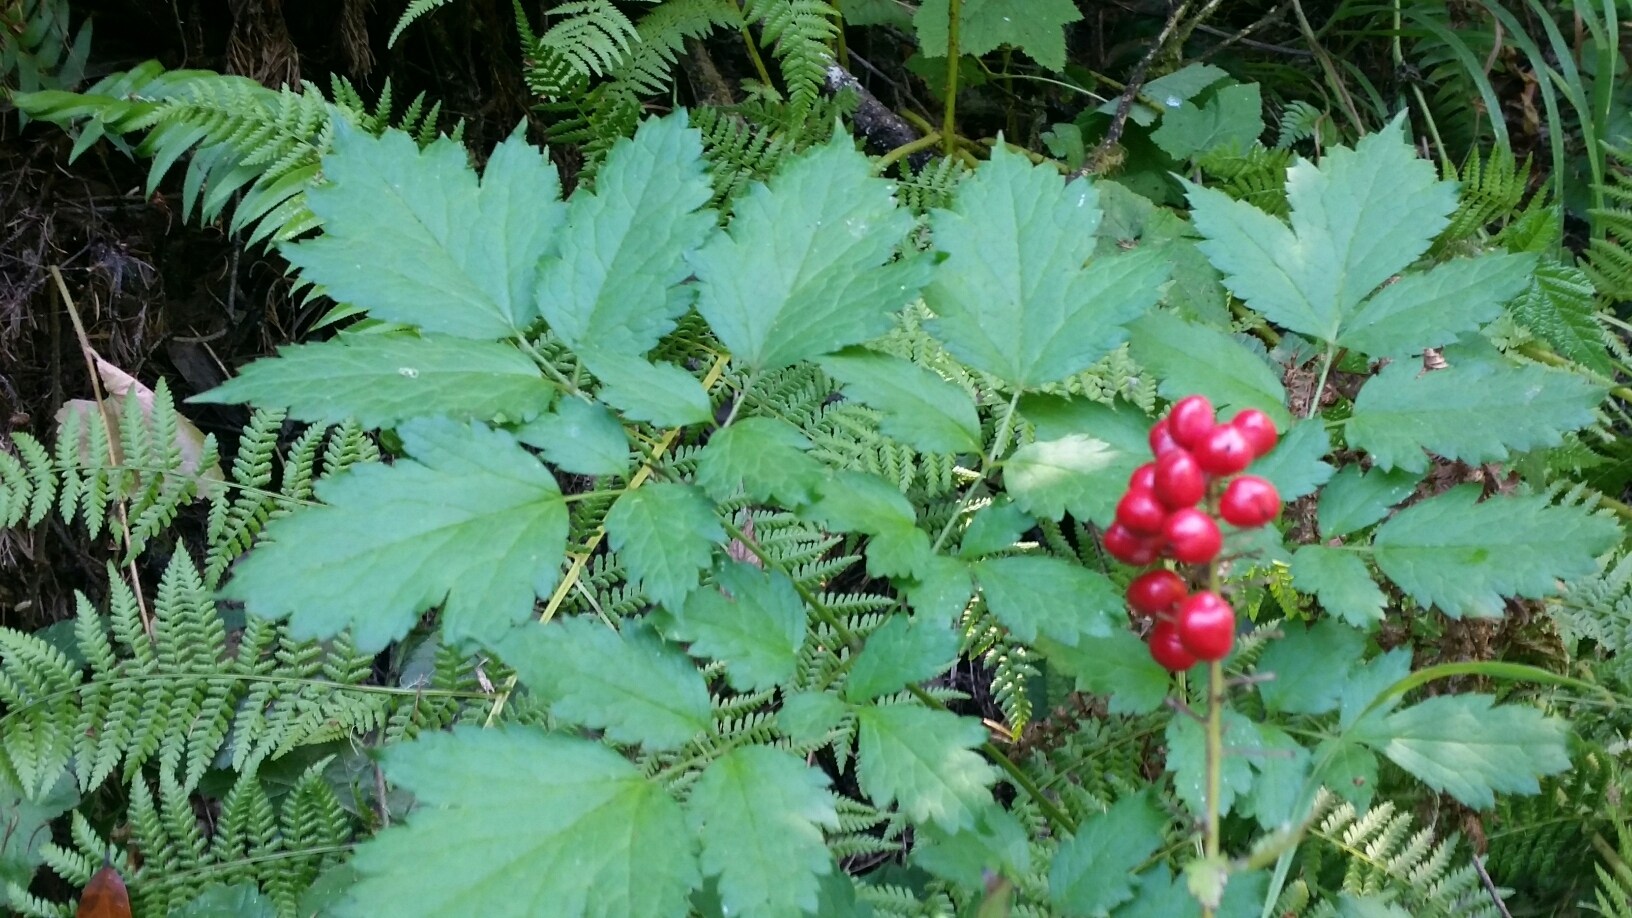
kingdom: Plantae
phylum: Tracheophyta
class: Magnoliopsida
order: Ranunculales
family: Ranunculaceae
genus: Actaea
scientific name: Actaea rubra
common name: Red baneberry
